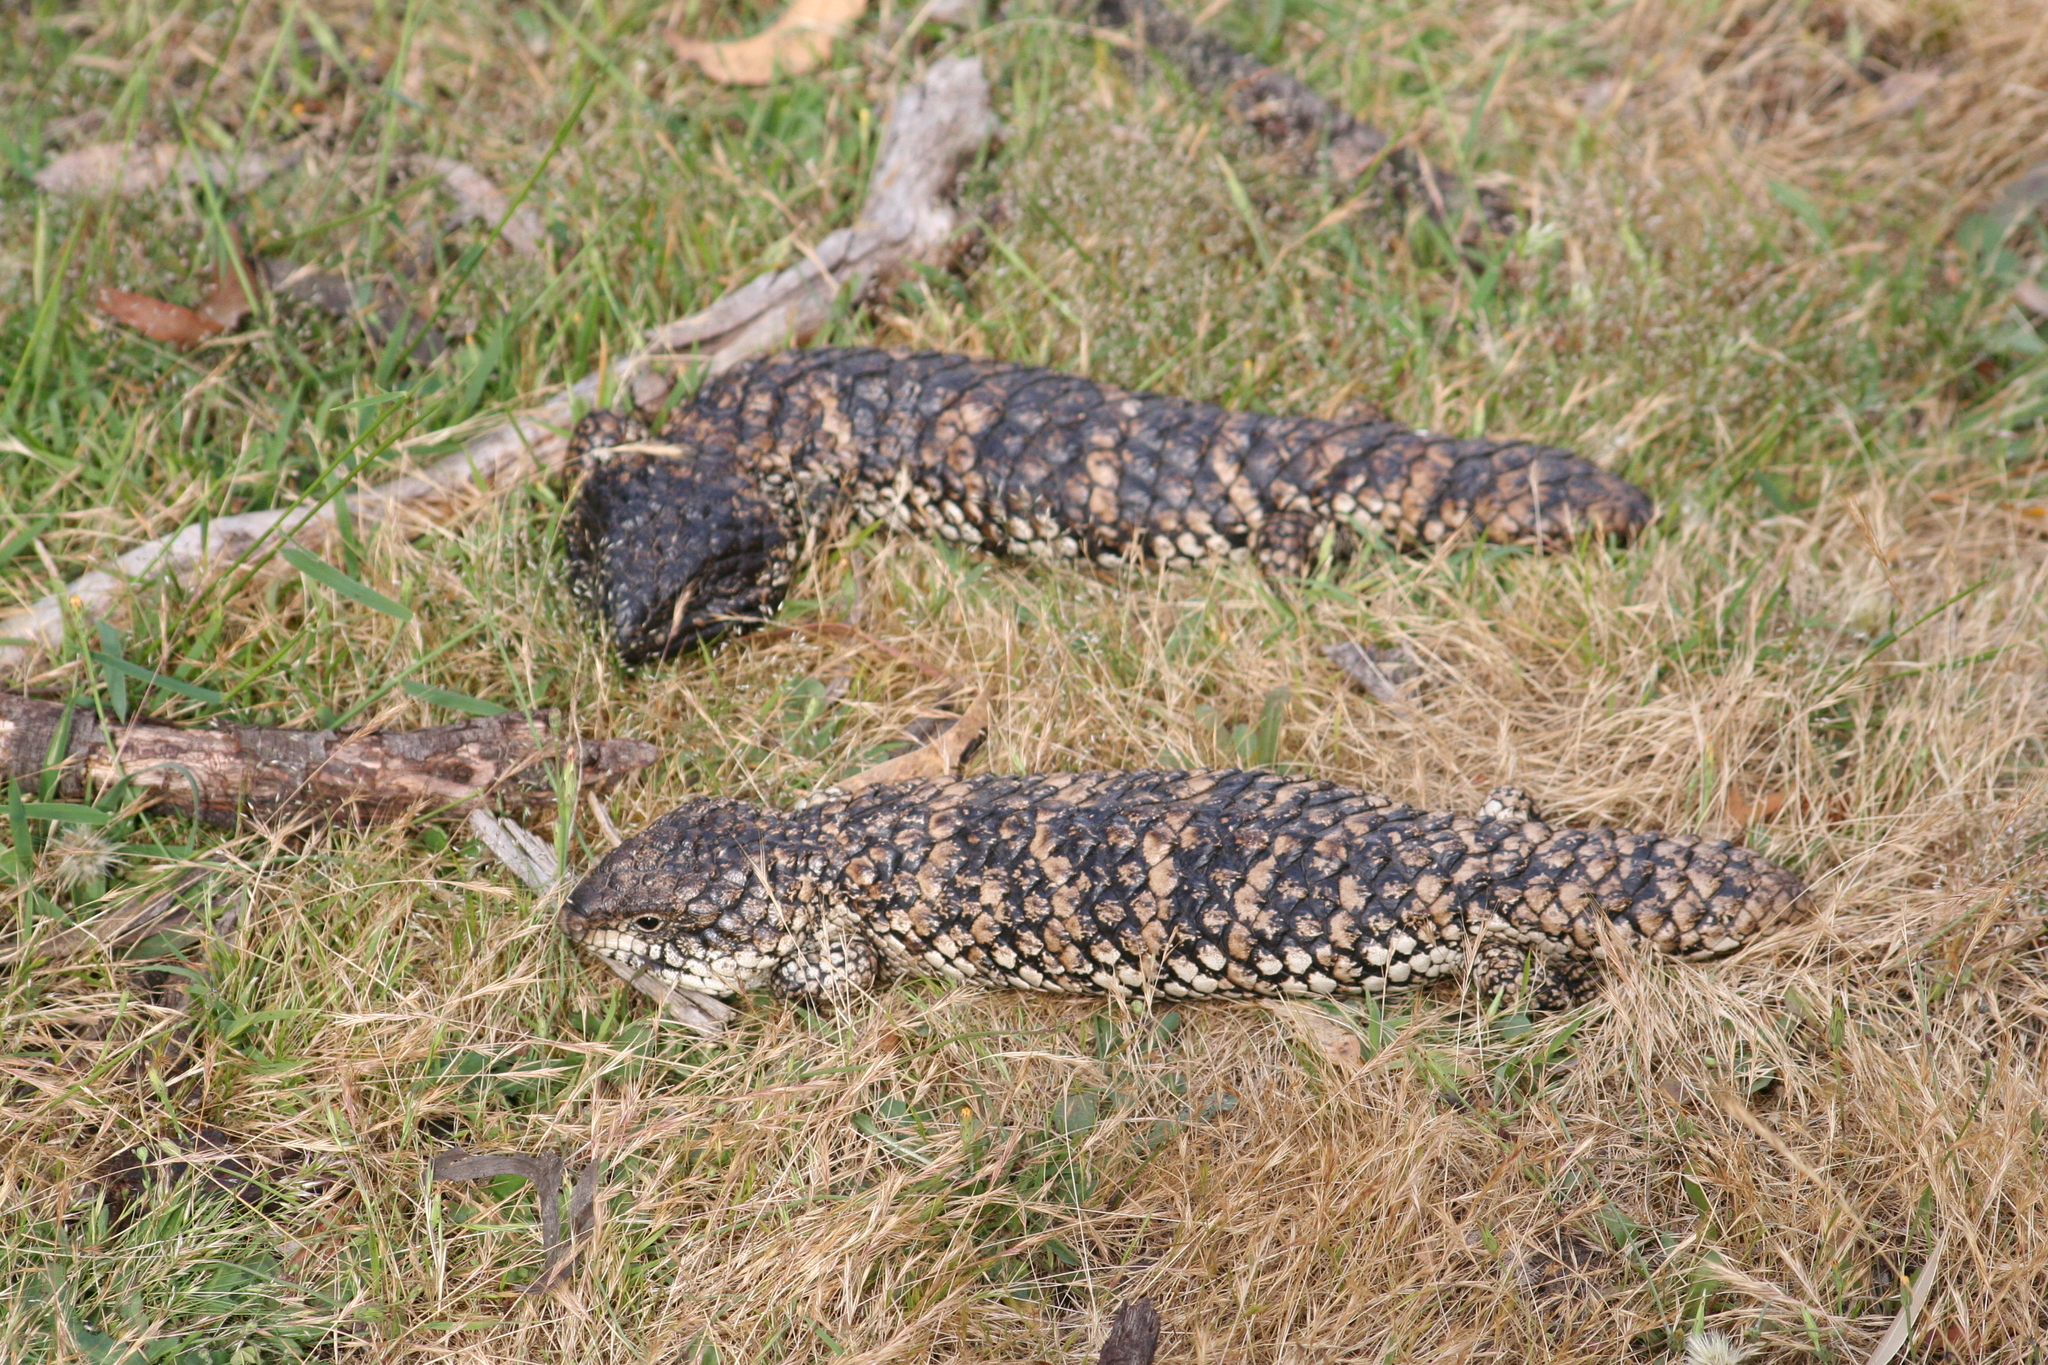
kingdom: Animalia
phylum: Chordata
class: Squamata
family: Scincidae
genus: Tiliqua
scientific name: Tiliqua rugosa
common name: Pinecone lizard
